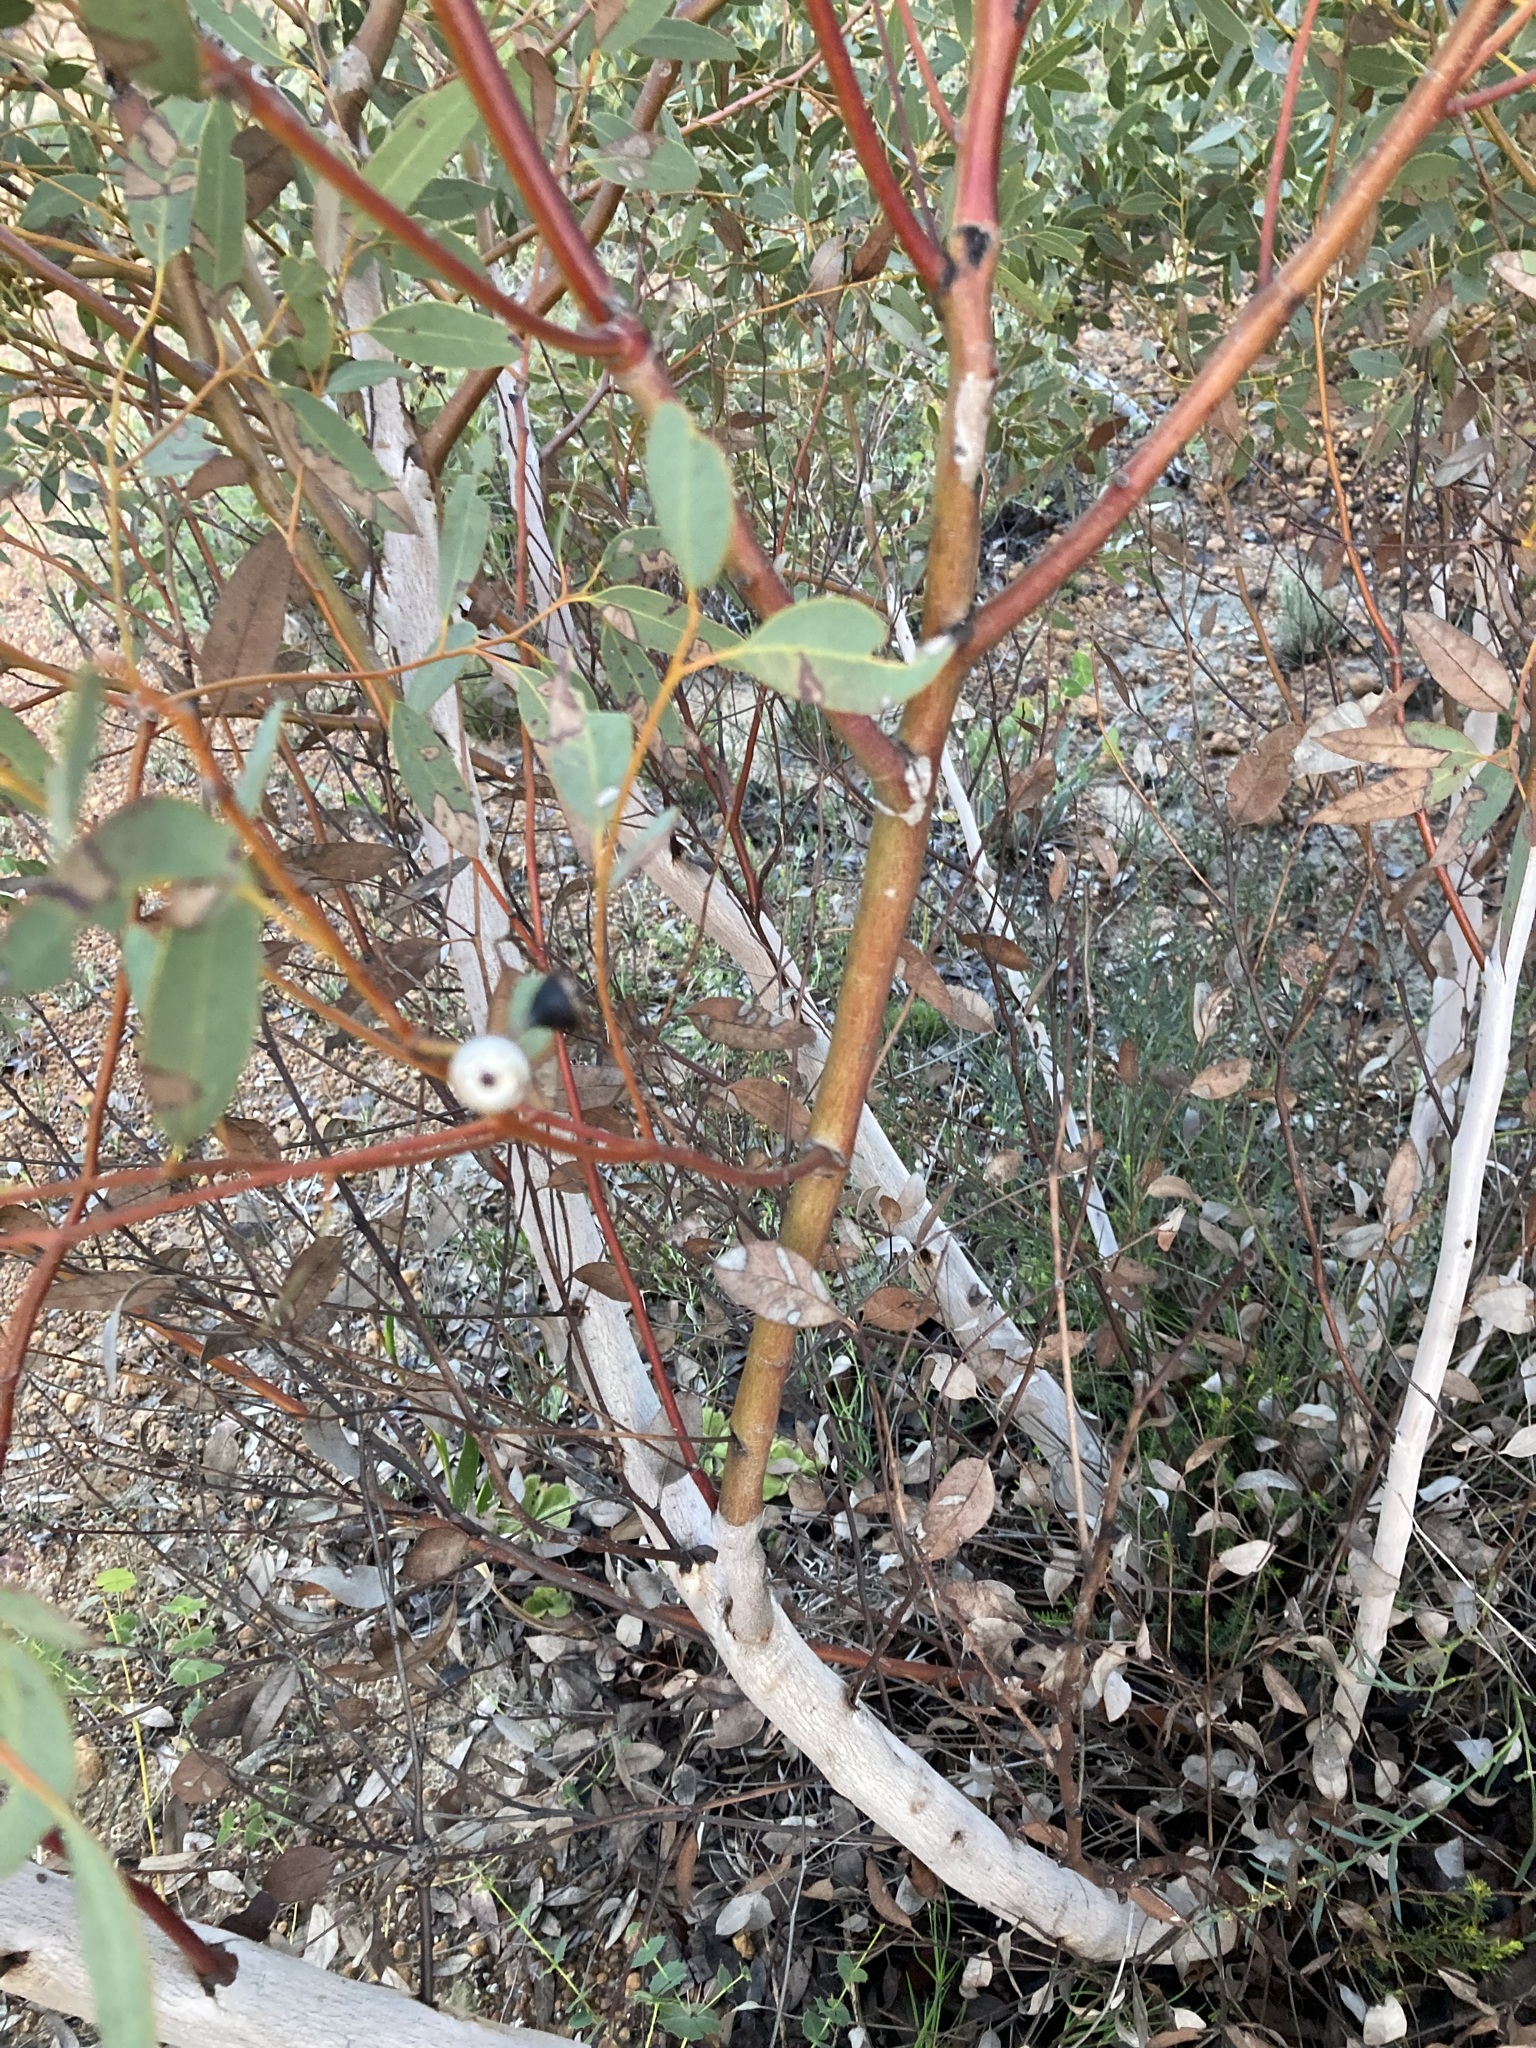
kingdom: Plantae
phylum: Tracheophyta
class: Magnoliopsida
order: Myrtales
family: Myrtaceae
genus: Eucalyptus
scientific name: Eucalyptus drummondii
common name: Drummond's mallee
